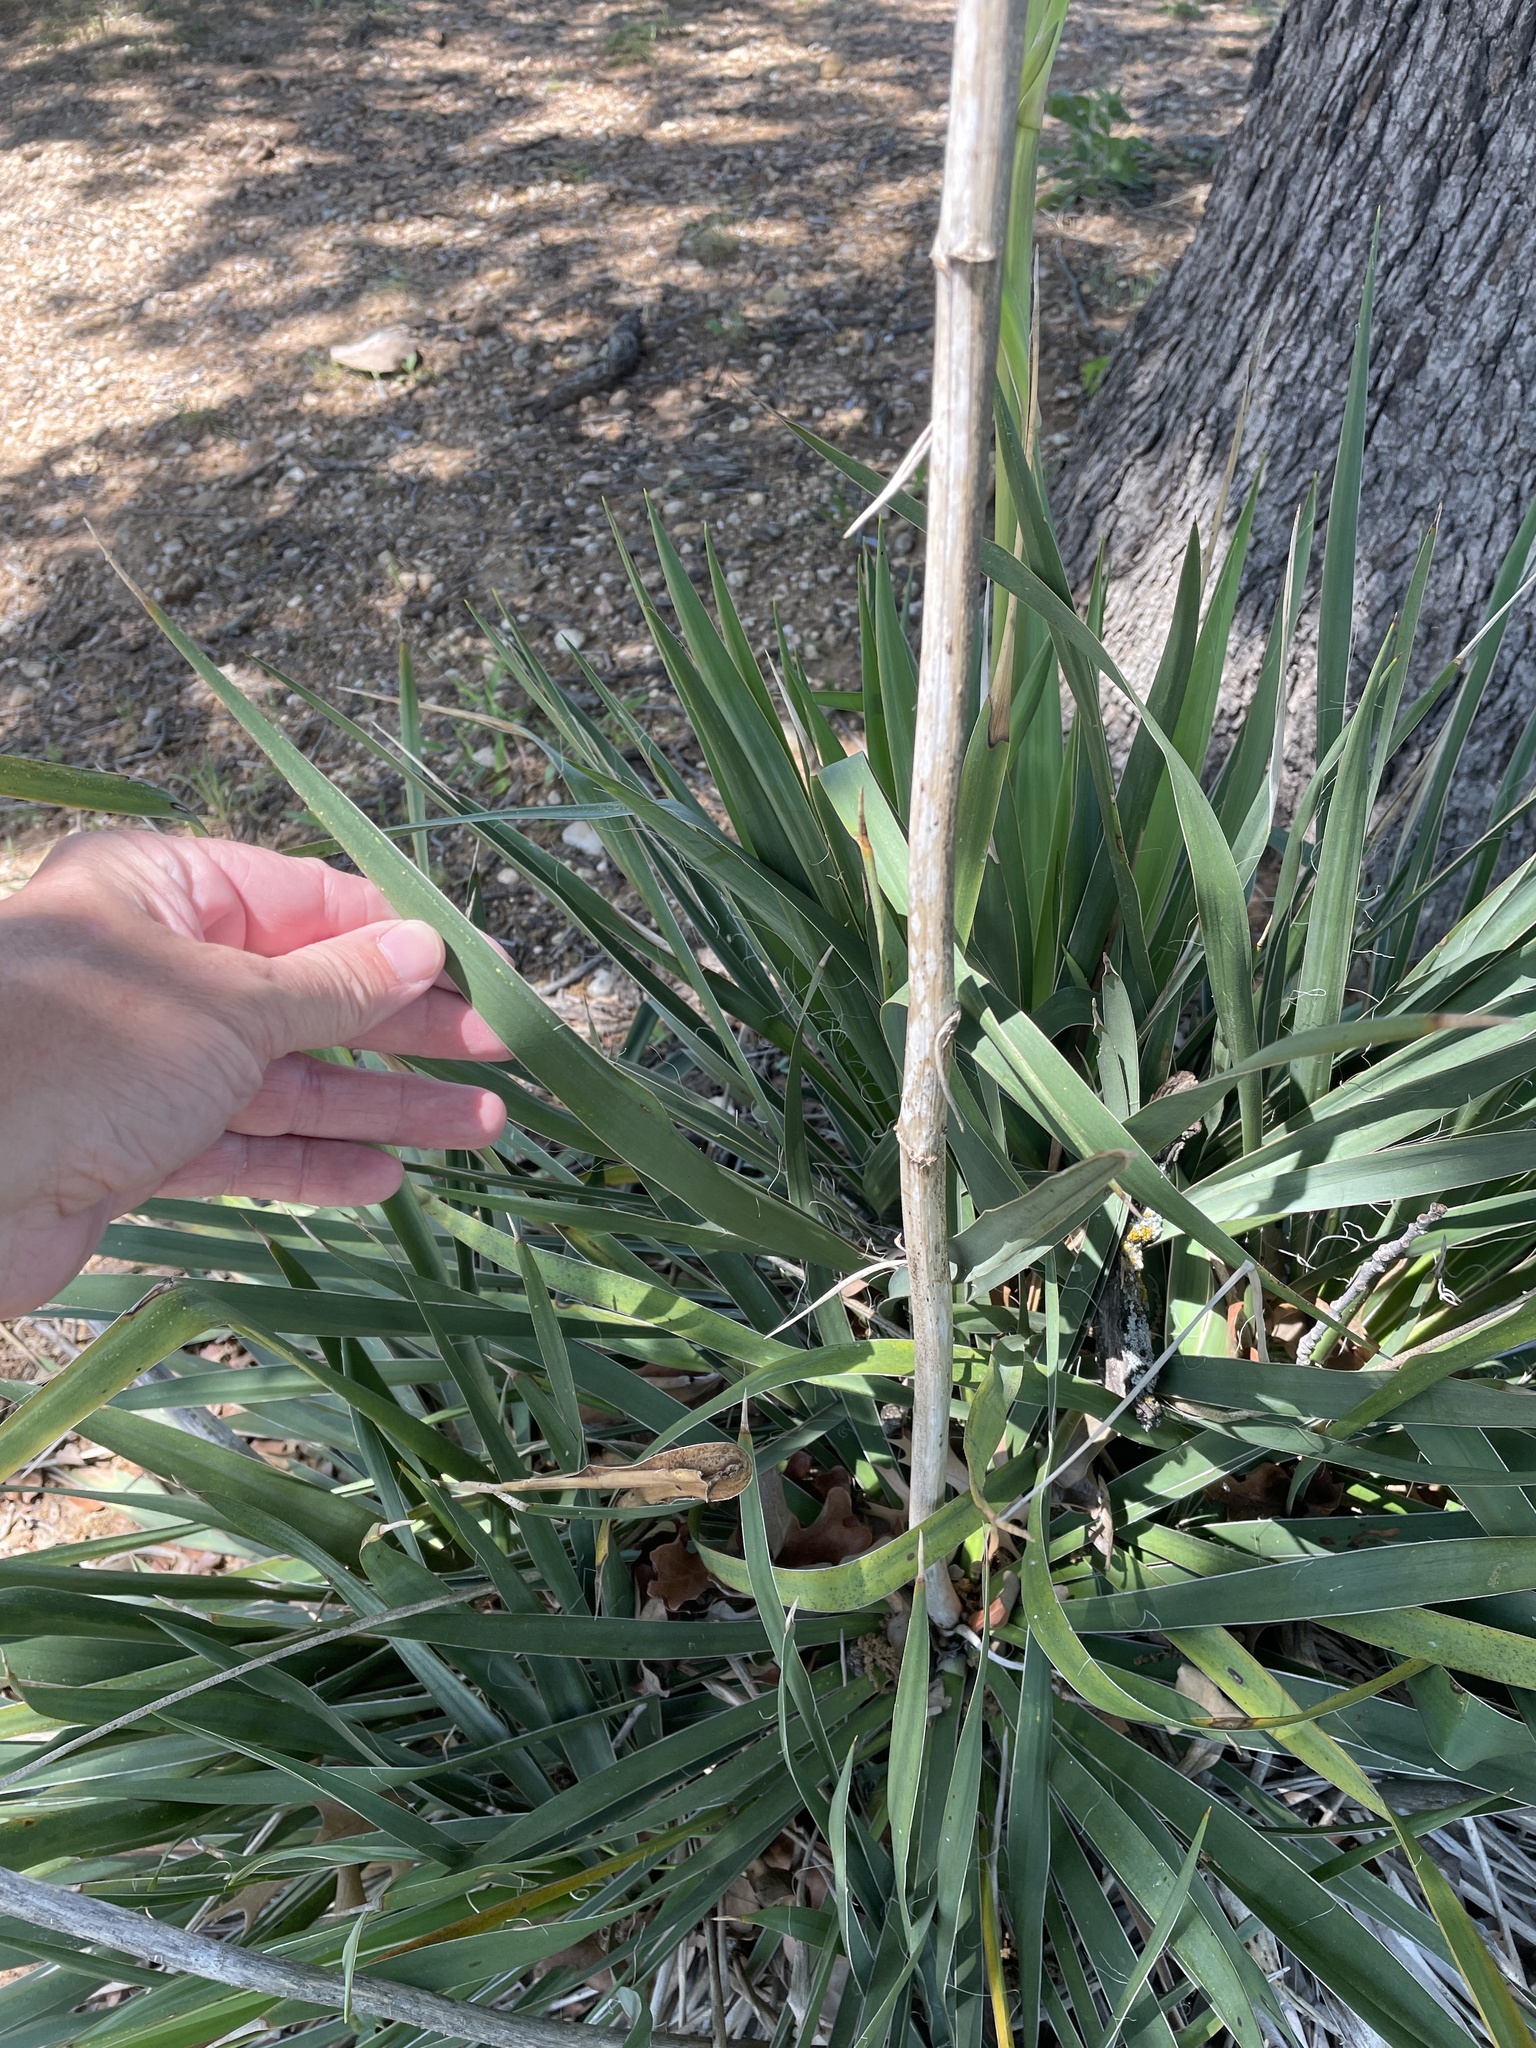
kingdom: Plantae
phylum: Tracheophyta
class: Liliopsida
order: Asparagales
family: Asparagaceae
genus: Yucca
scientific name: Yucca necopina
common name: Glen rose yucca
